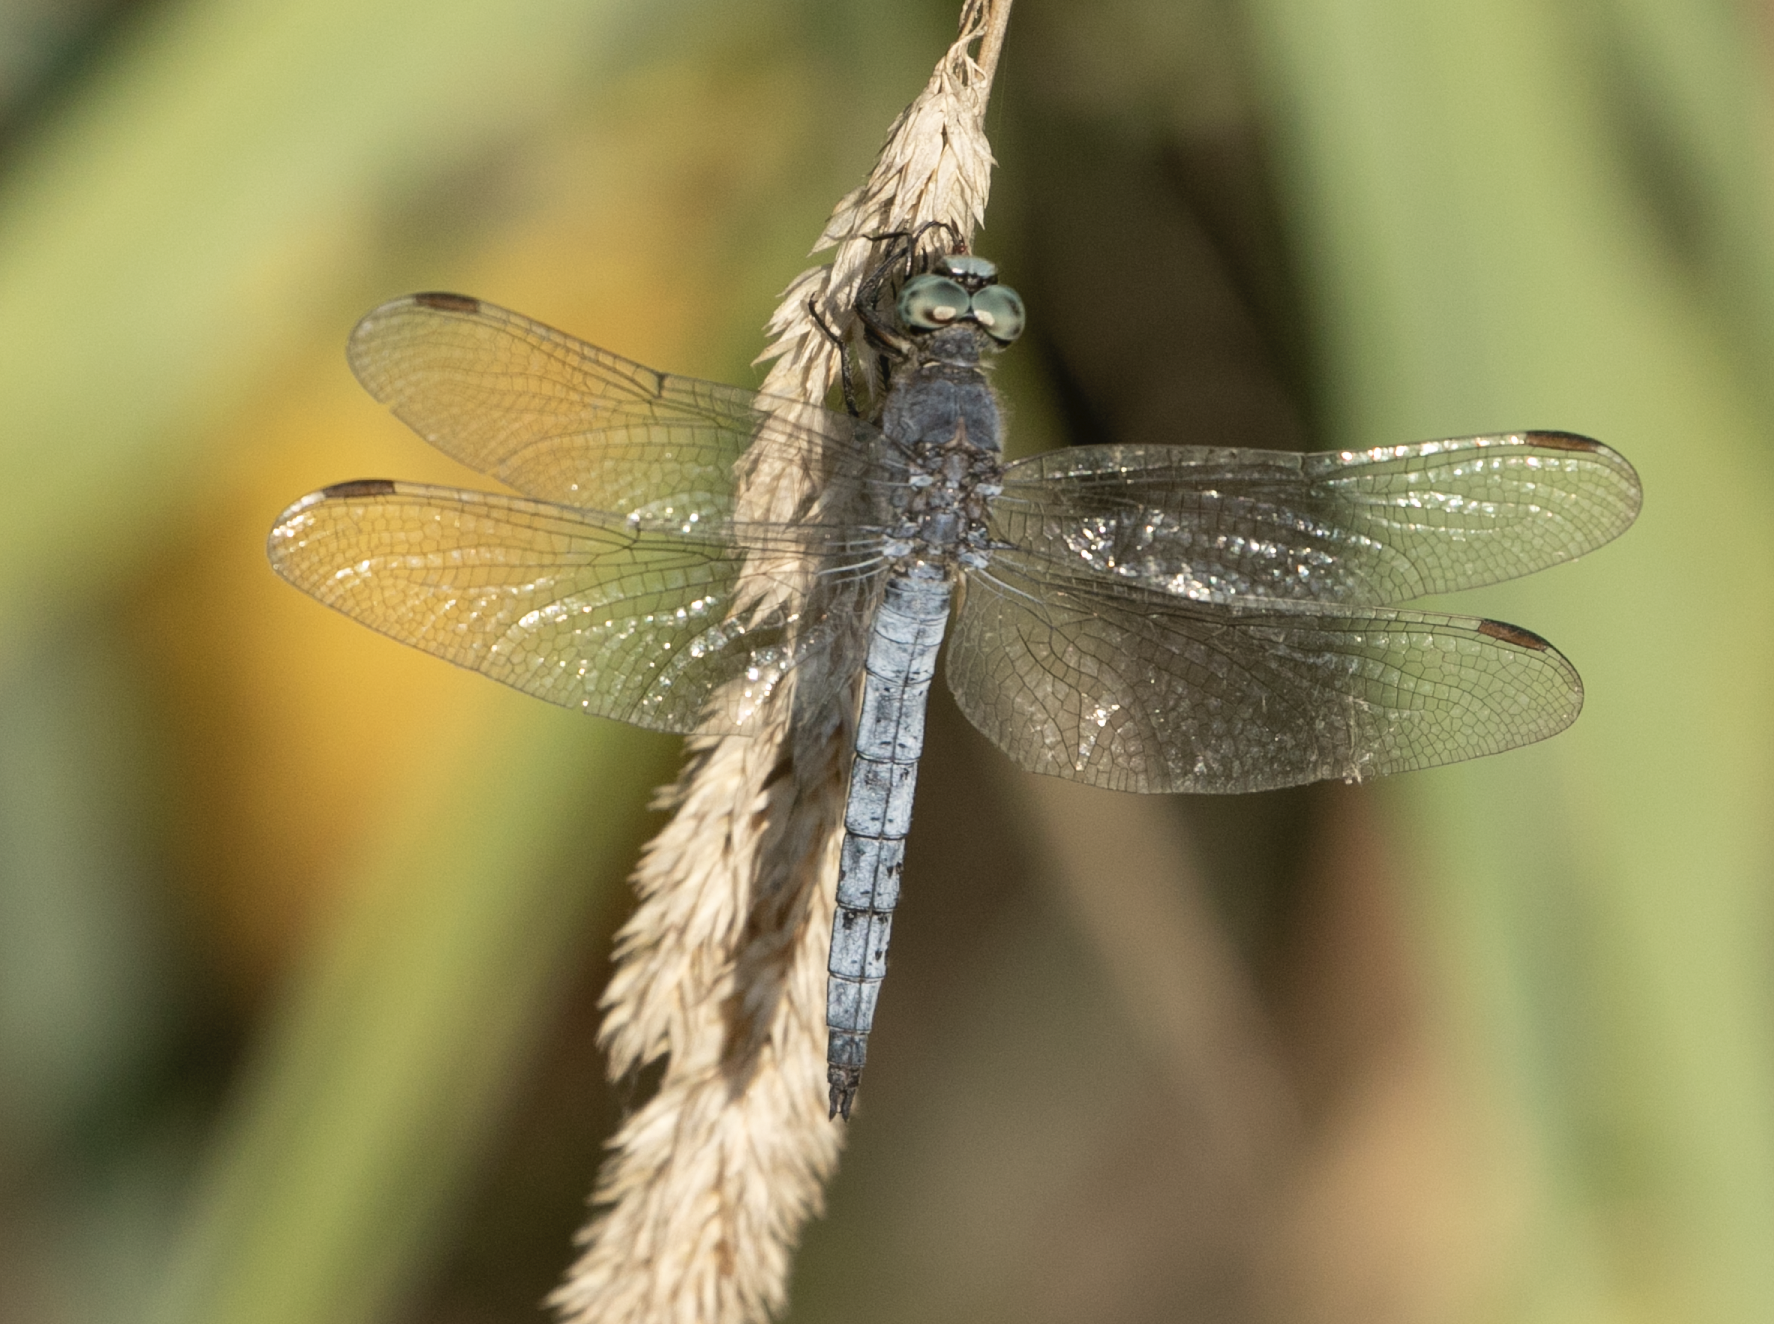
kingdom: Animalia
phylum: Arthropoda
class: Insecta
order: Odonata
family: Libellulidae
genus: Orthetrum
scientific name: Orthetrum coerulescens
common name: Keeled skimmer
